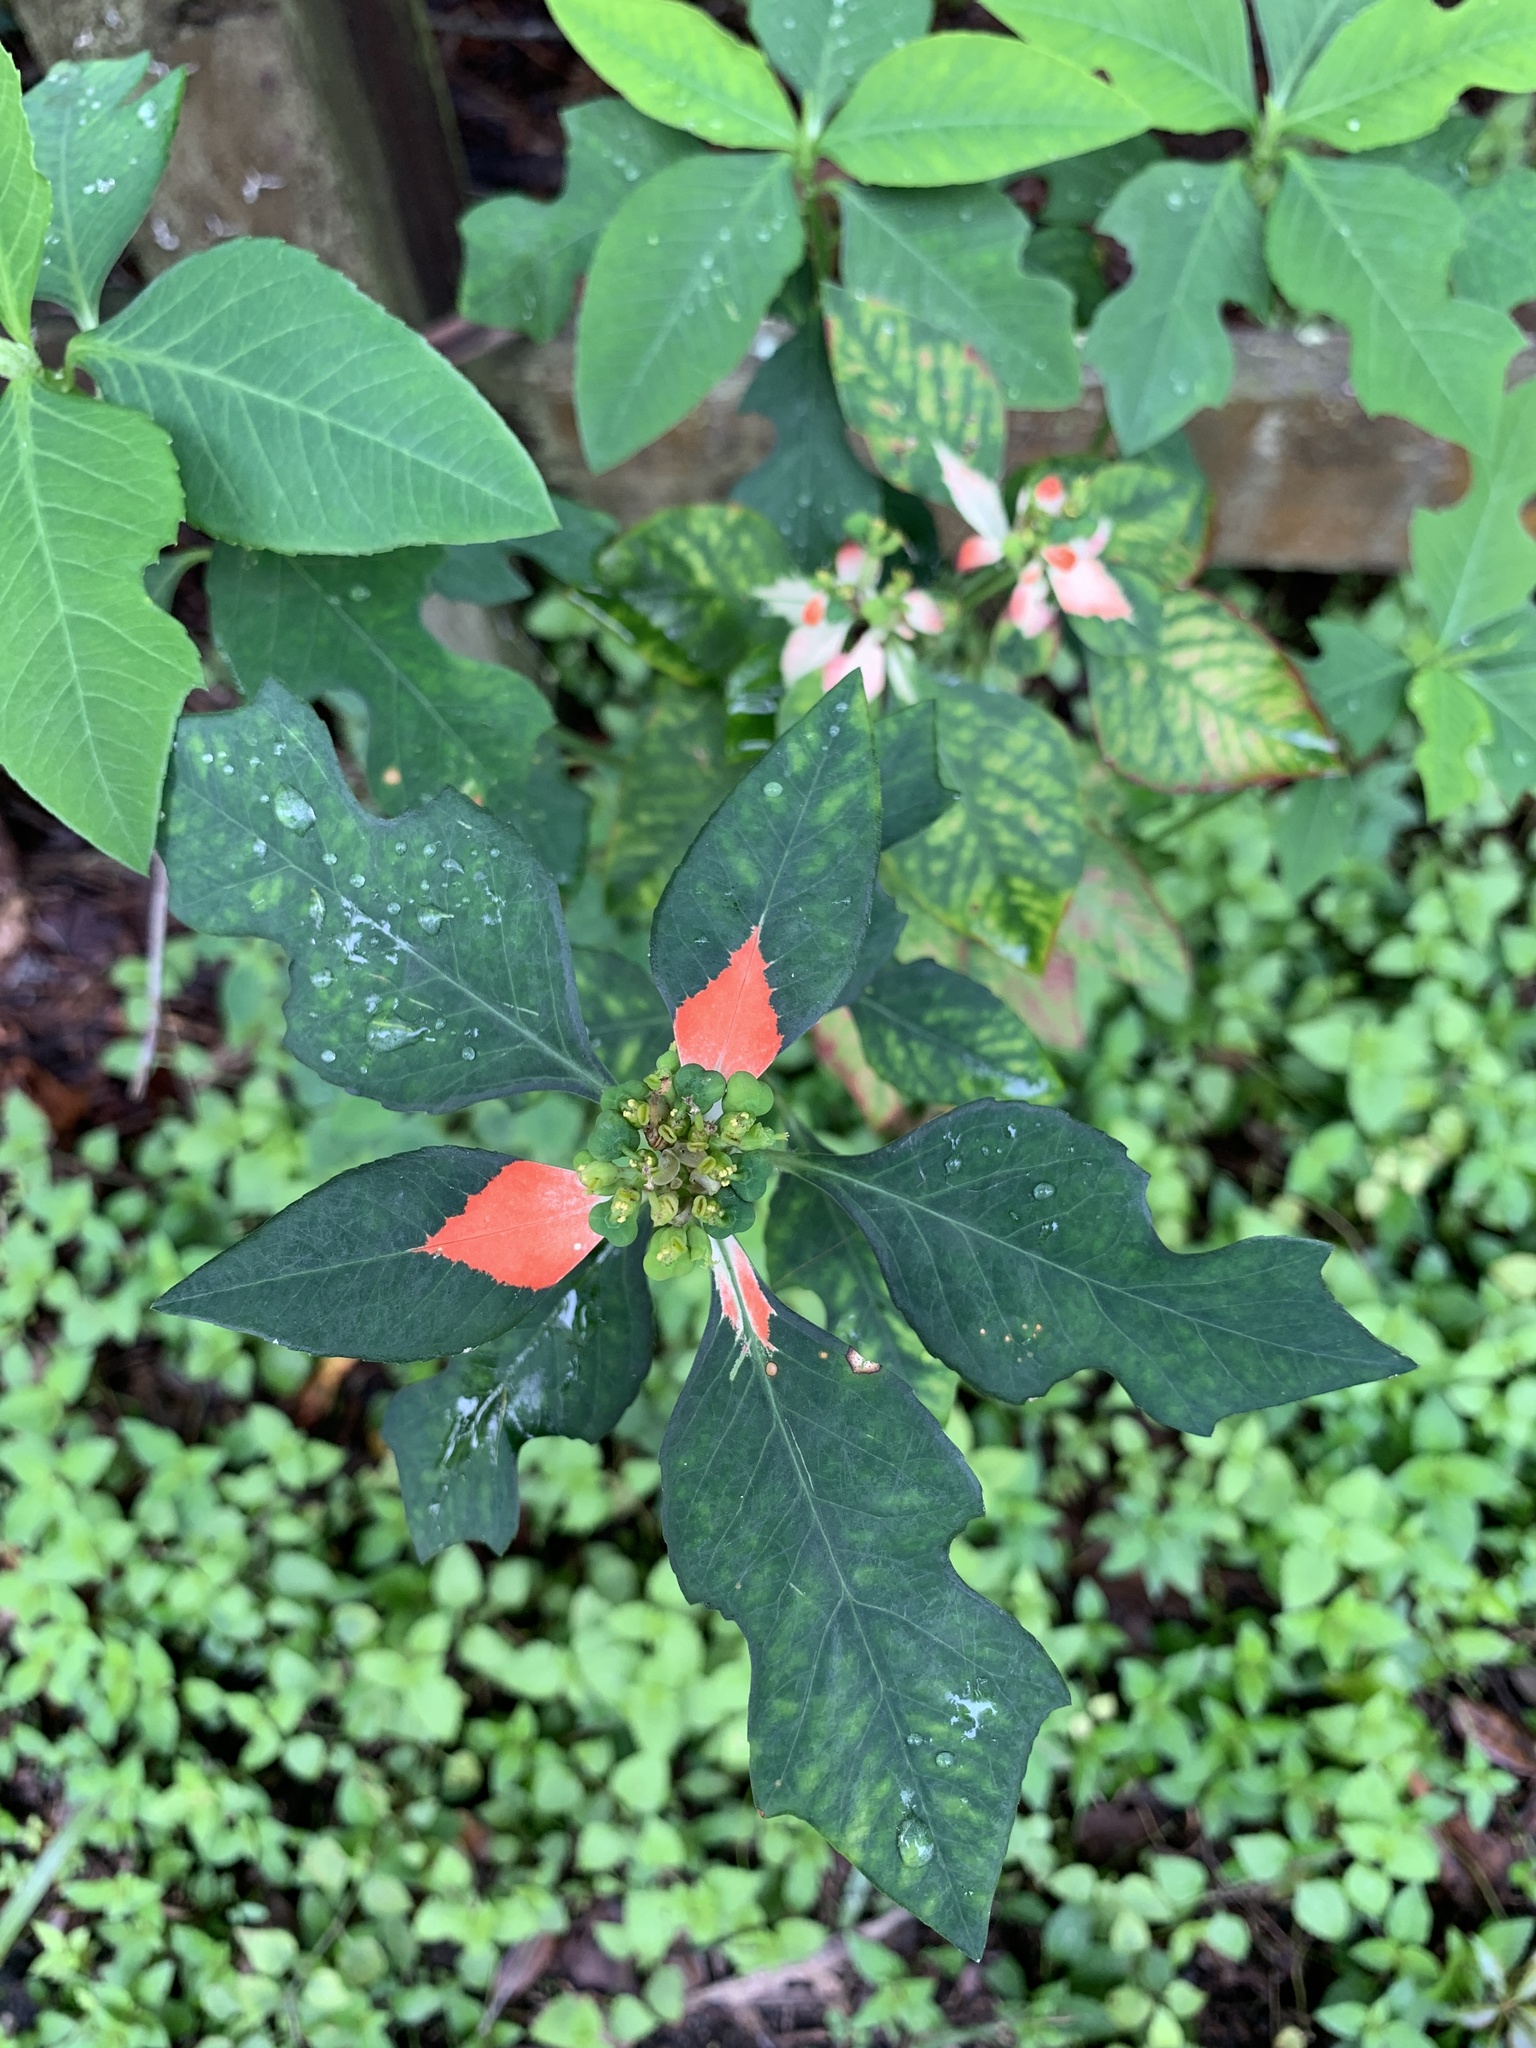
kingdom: Plantae
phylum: Tracheophyta
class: Magnoliopsida
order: Malpighiales
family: Euphorbiaceae
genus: Euphorbia
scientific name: Euphorbia heterophylla
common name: Mexican fireplant
